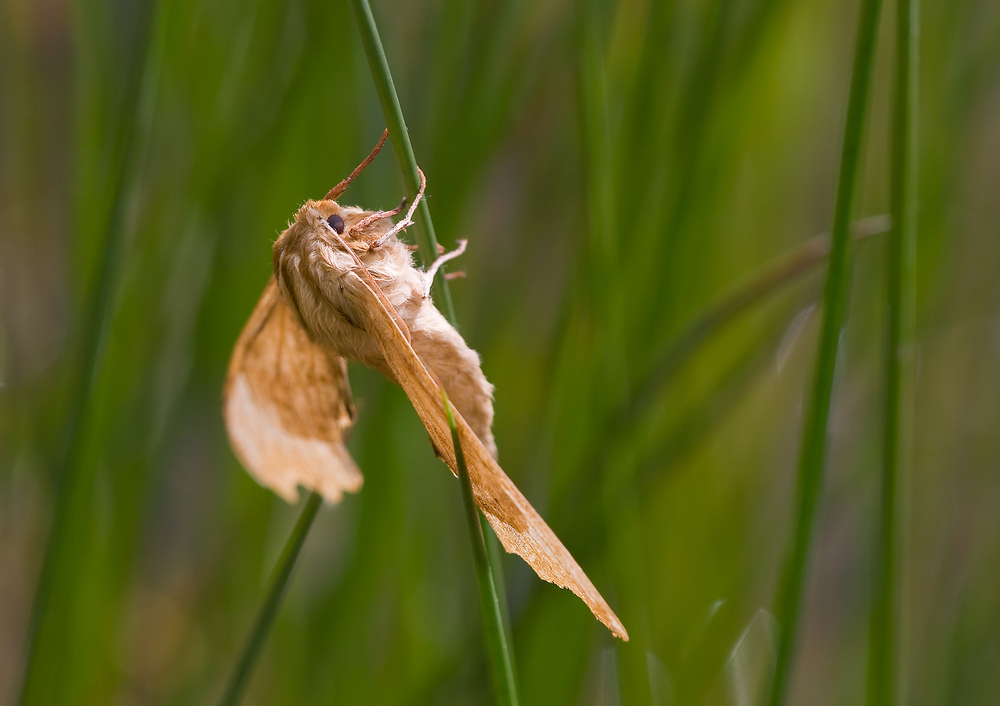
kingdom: Animalia
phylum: Arthropoda
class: Insecta
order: Lepidoptera
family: Sphingidae
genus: Mimas
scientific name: Mimas tiliae
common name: Lime hawk-moth
